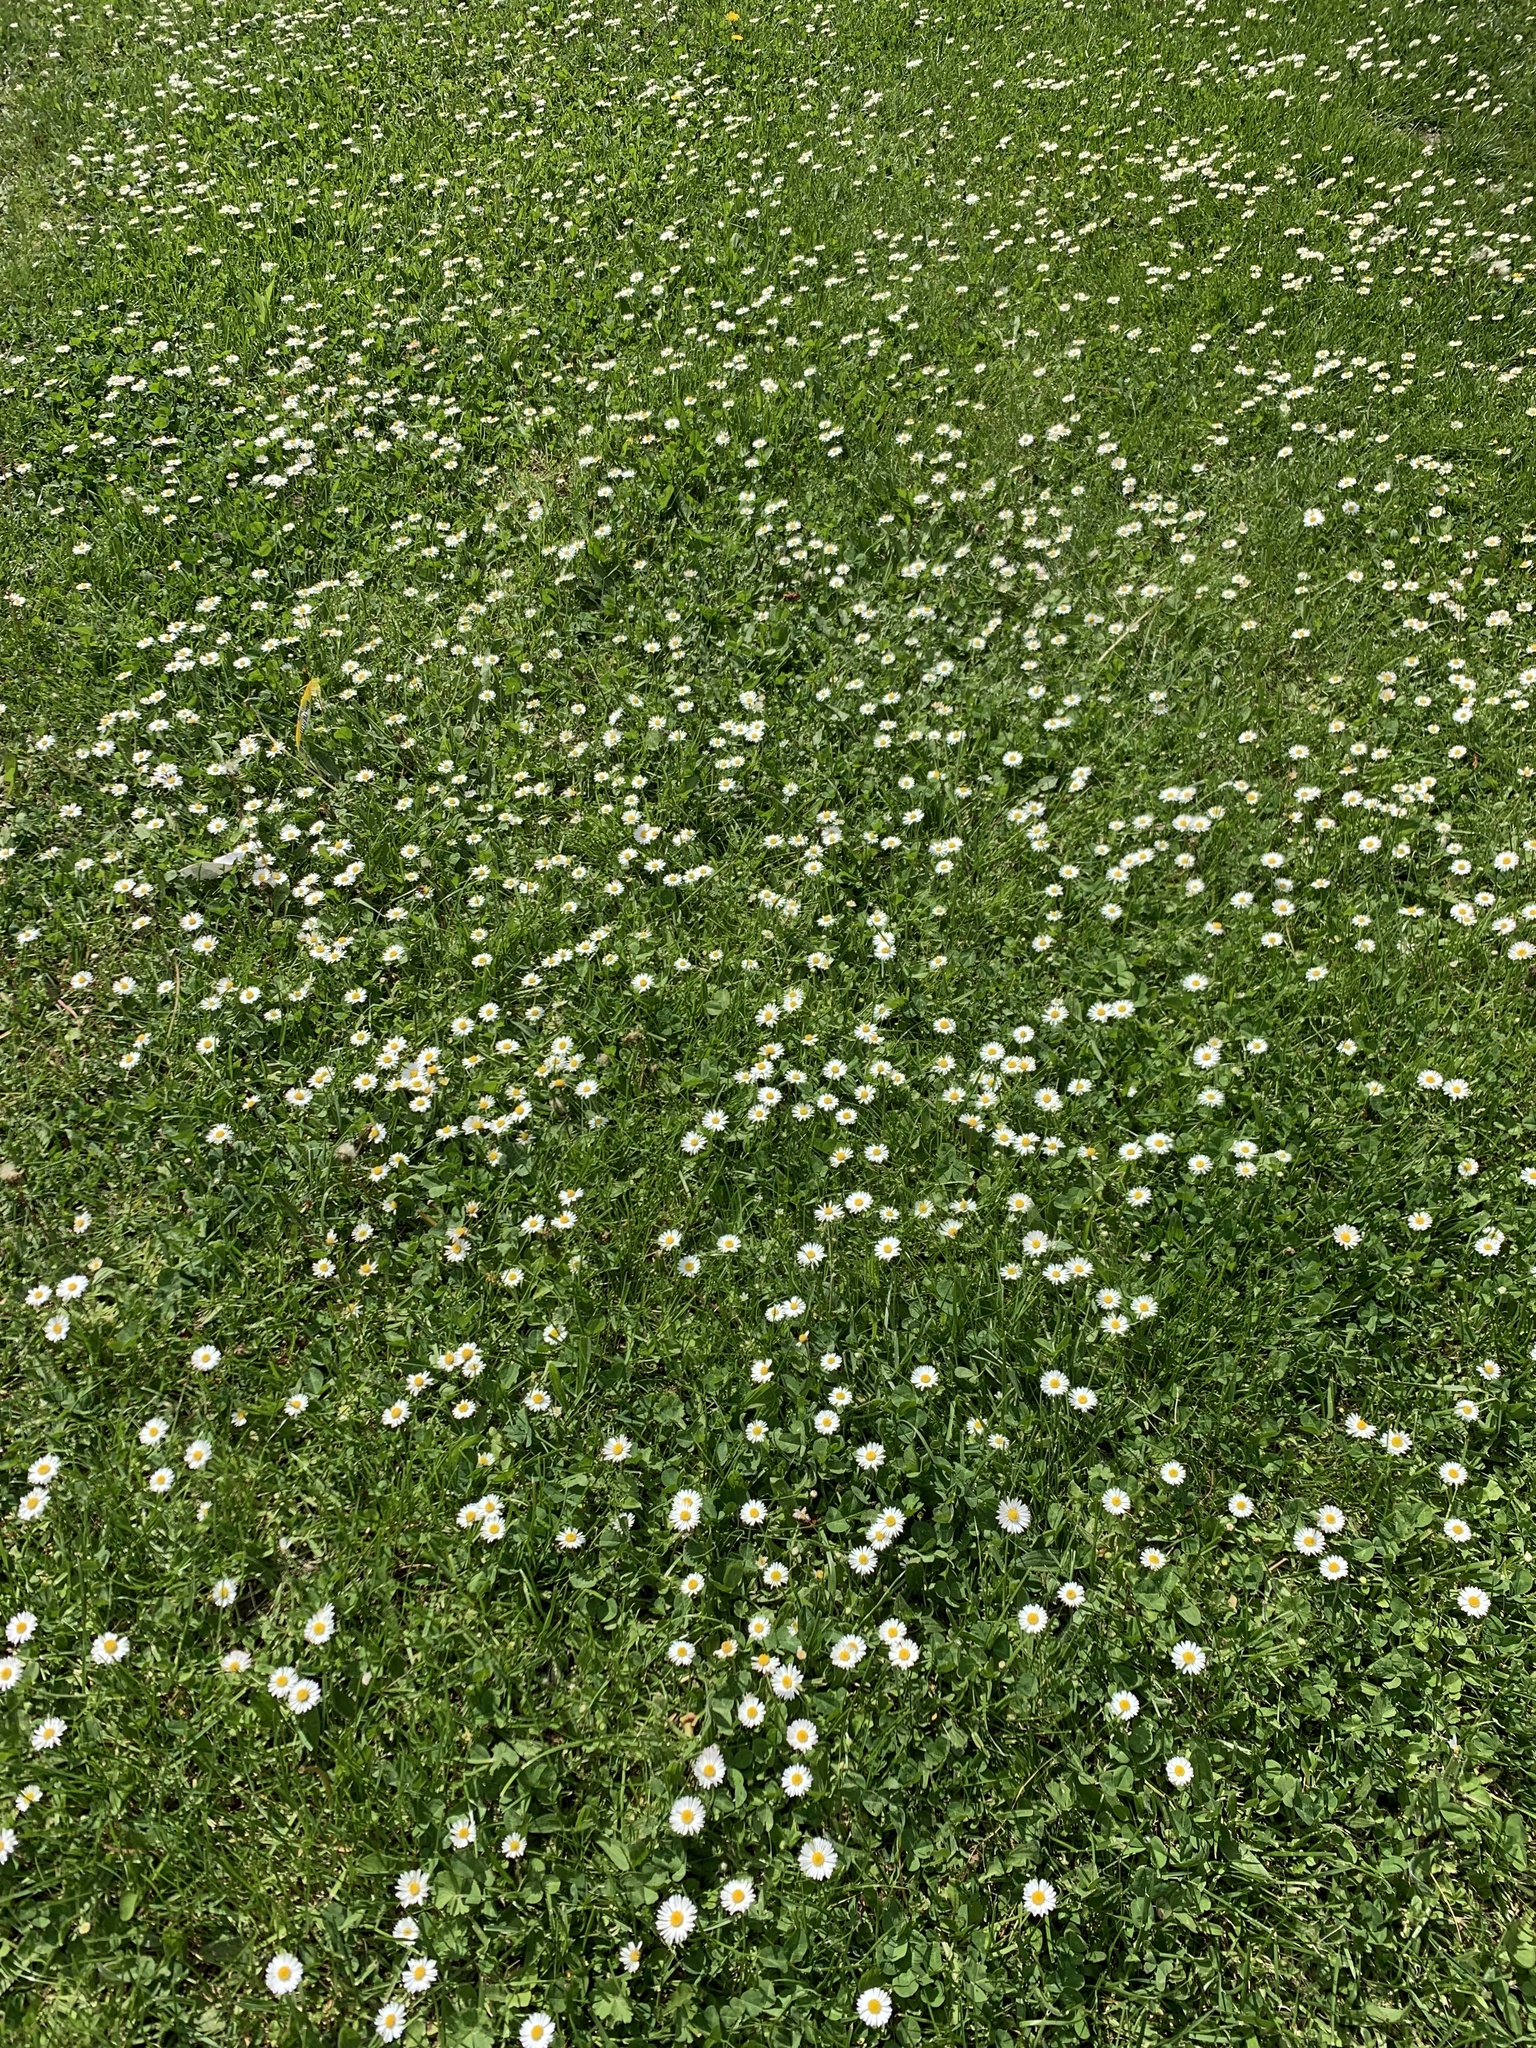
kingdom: Plantae
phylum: Tracheophyta
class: Magnoliopsida
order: Asterales
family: Asteraceae
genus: Bellis
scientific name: Bellis perennis
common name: Lawndaisy
